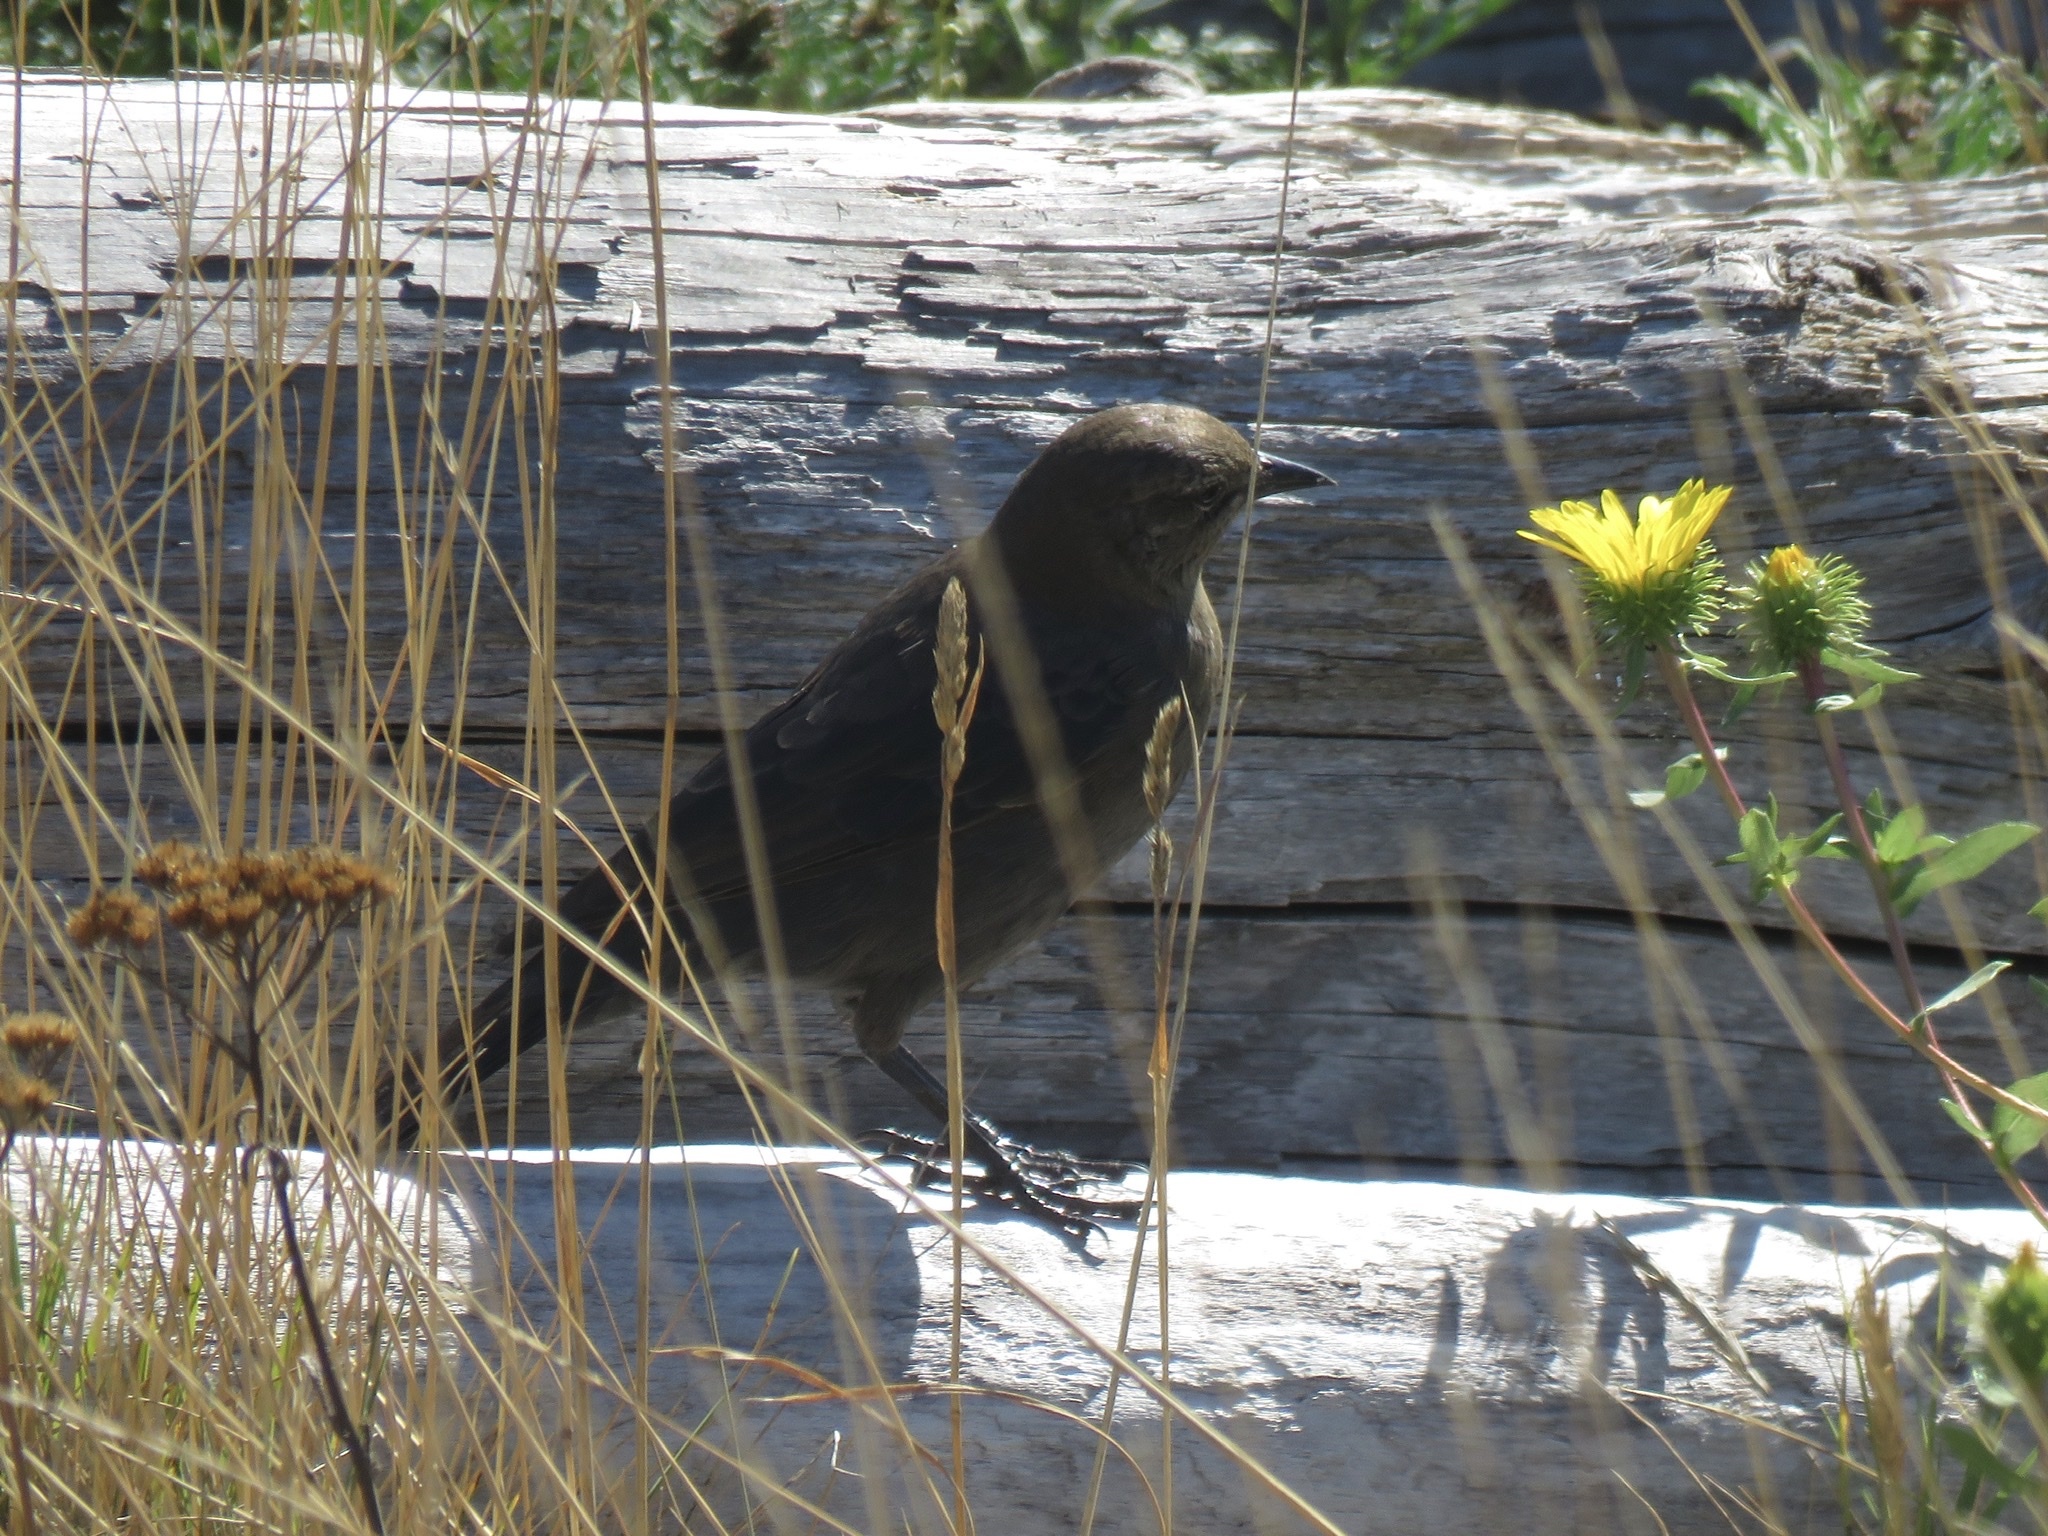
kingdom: Animalia
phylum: Chordata
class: Aves
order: Passeriformes
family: Icteridae
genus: Euphagus
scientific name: Euphagus cyanocephalus
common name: Brewer's blackbird
